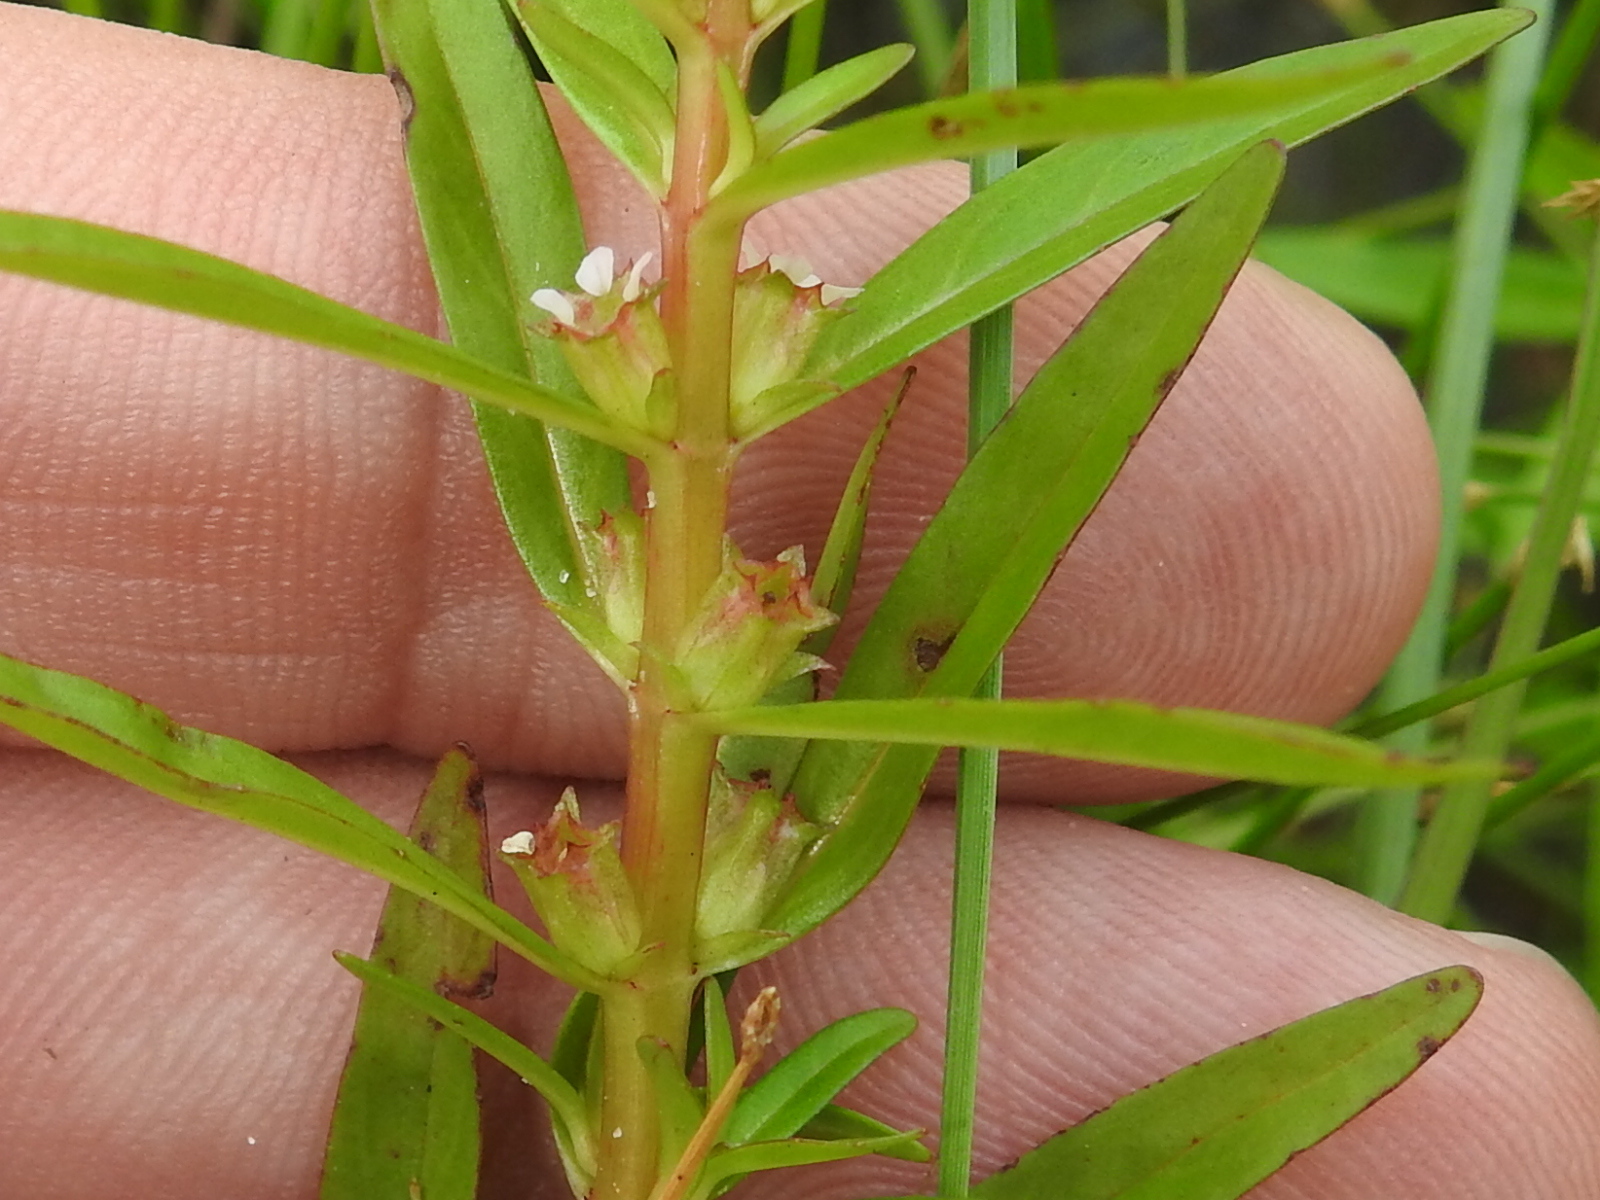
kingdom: Plantae
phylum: Tracheophyta
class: Magnoliopsida
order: Myrtales
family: Lythraceae
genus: Rotala
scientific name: Rotala ramosior
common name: Lowland rotala
